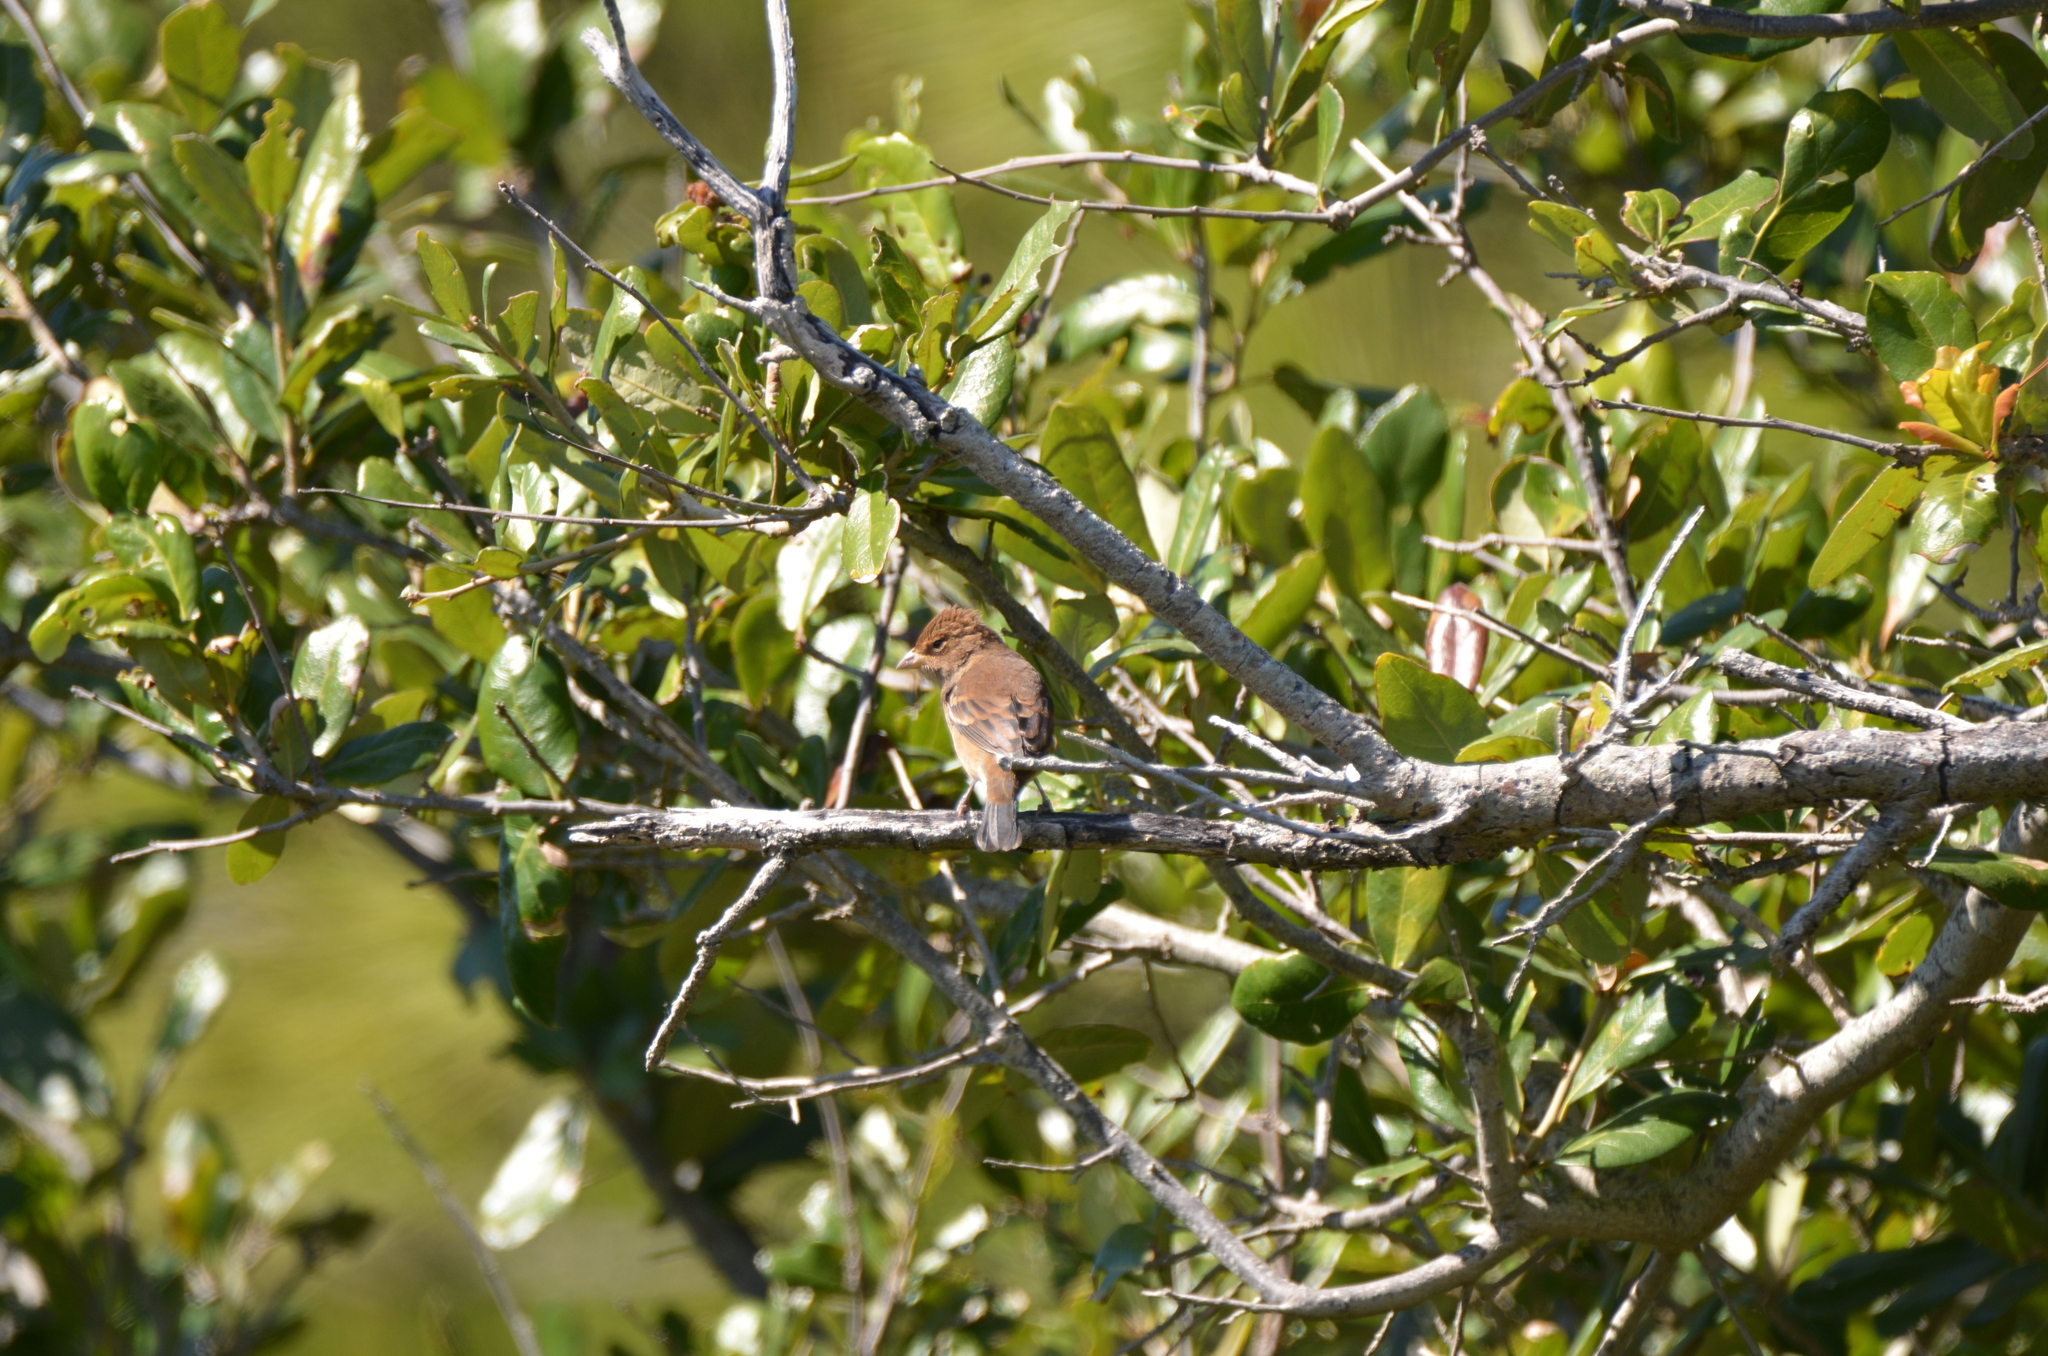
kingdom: Animalia
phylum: Chordata
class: Aves
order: Passeriformes
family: Cardinalidae
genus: Passerina
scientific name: Passerina cyanea
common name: Indigo bunting
